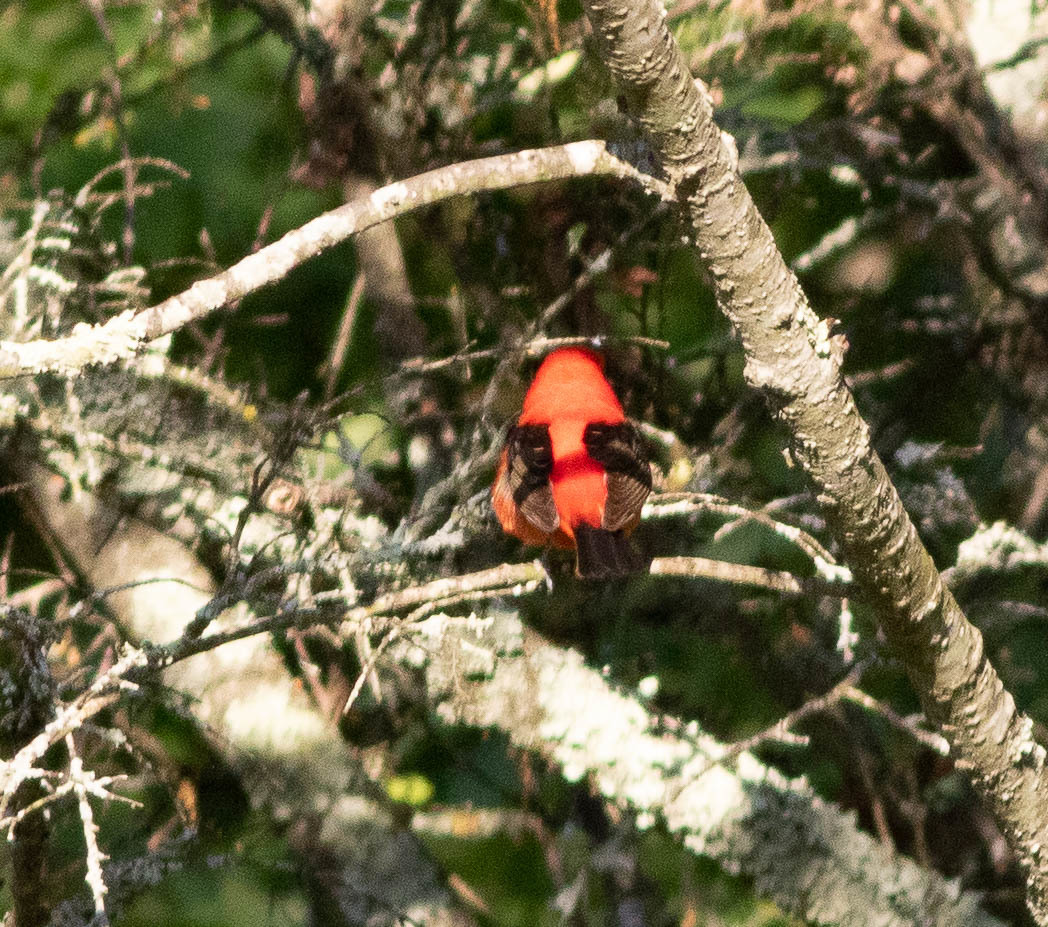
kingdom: Animalia
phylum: Chordata
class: Aves
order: Passeriformes
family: Cardinalidae
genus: Piranga
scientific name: Piranga olivacea
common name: Scarlet tanager
